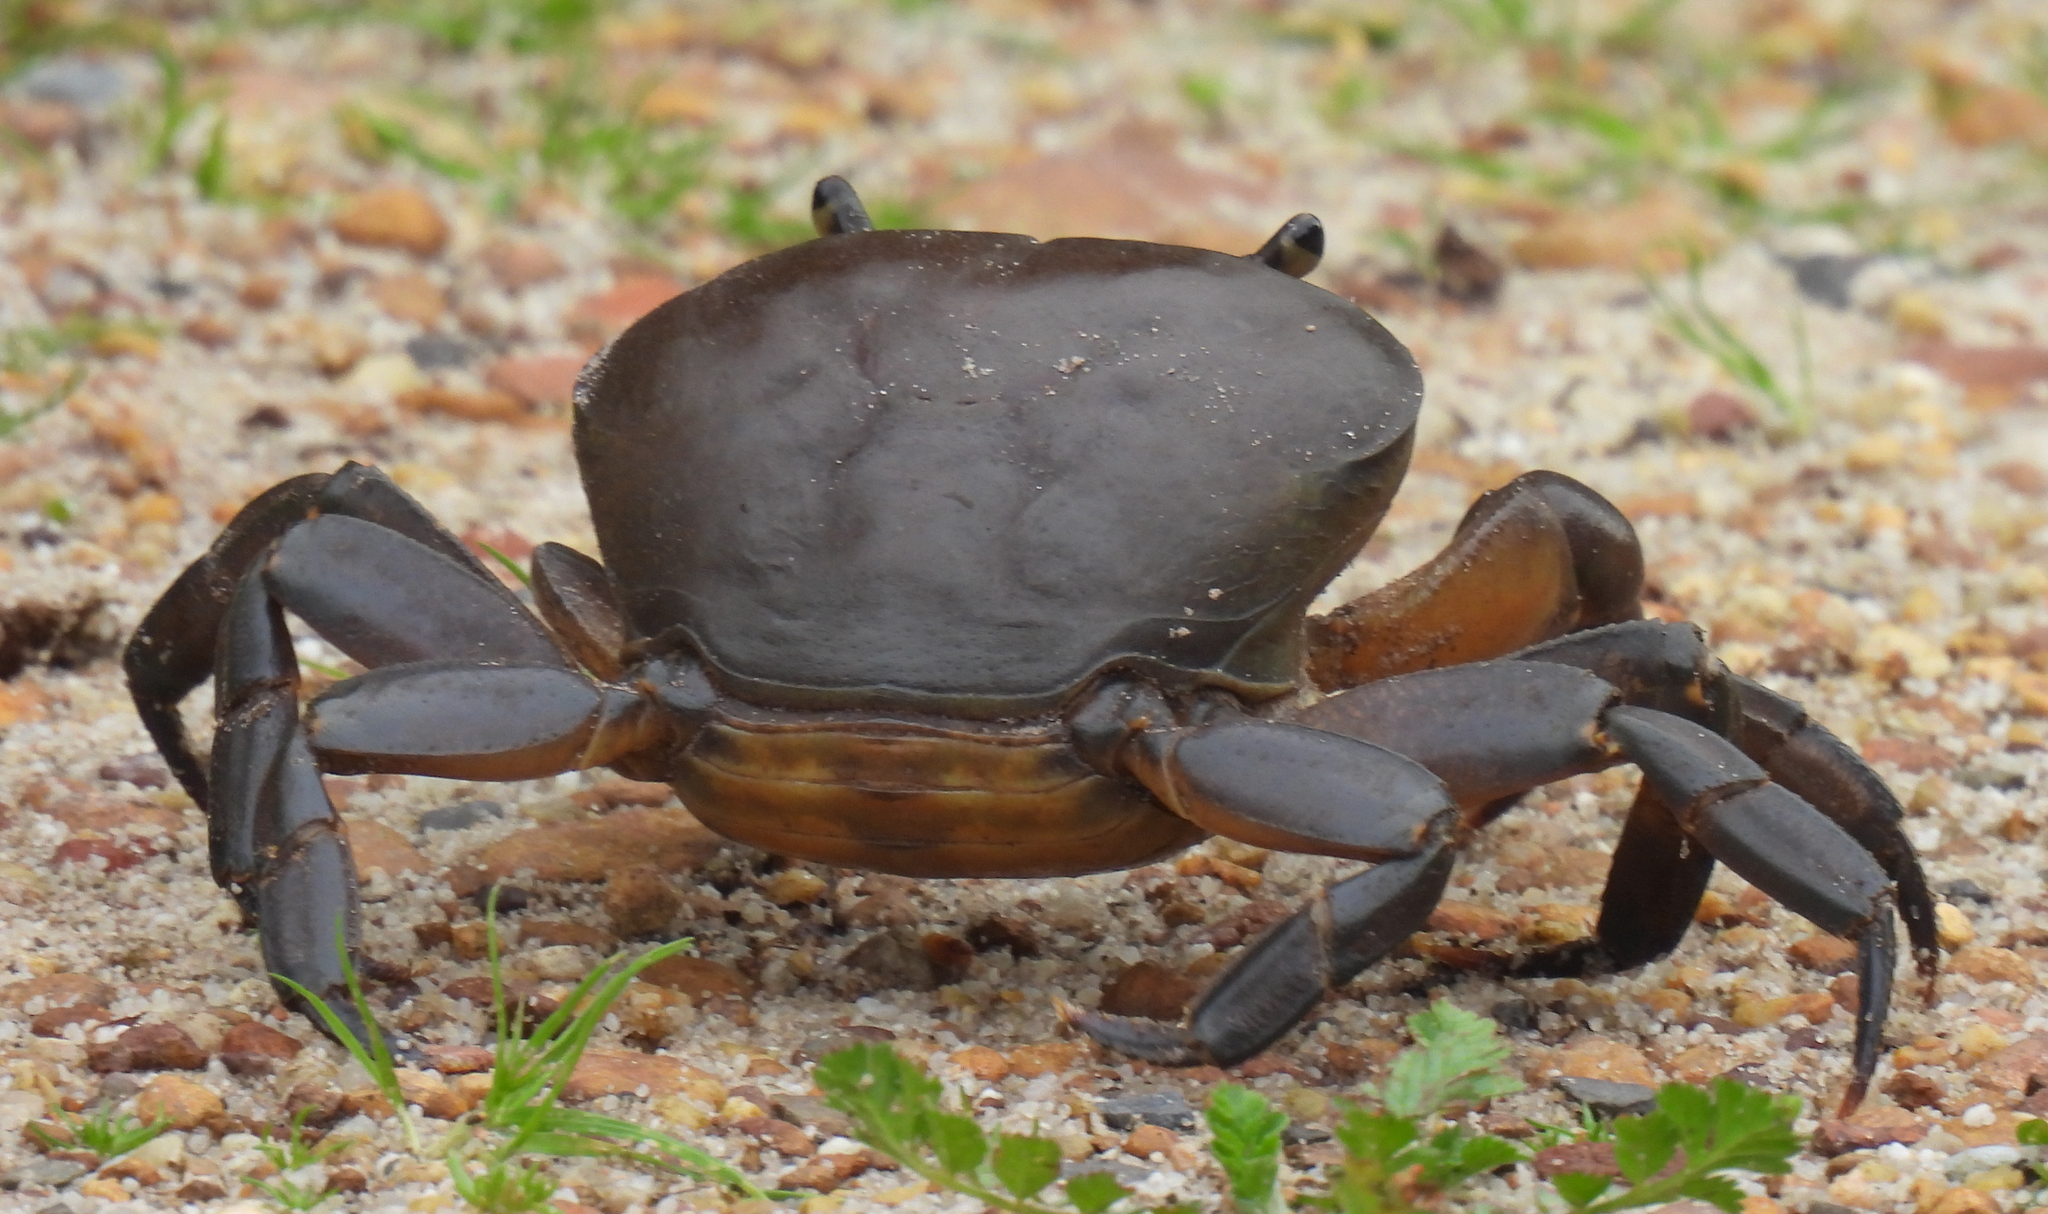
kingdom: Animalia
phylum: Arthropoda
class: Malacostraca
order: Decapoda
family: Potamonautidae
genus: Potamonautes
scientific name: Potamonautes perlatus
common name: Cape river crab
